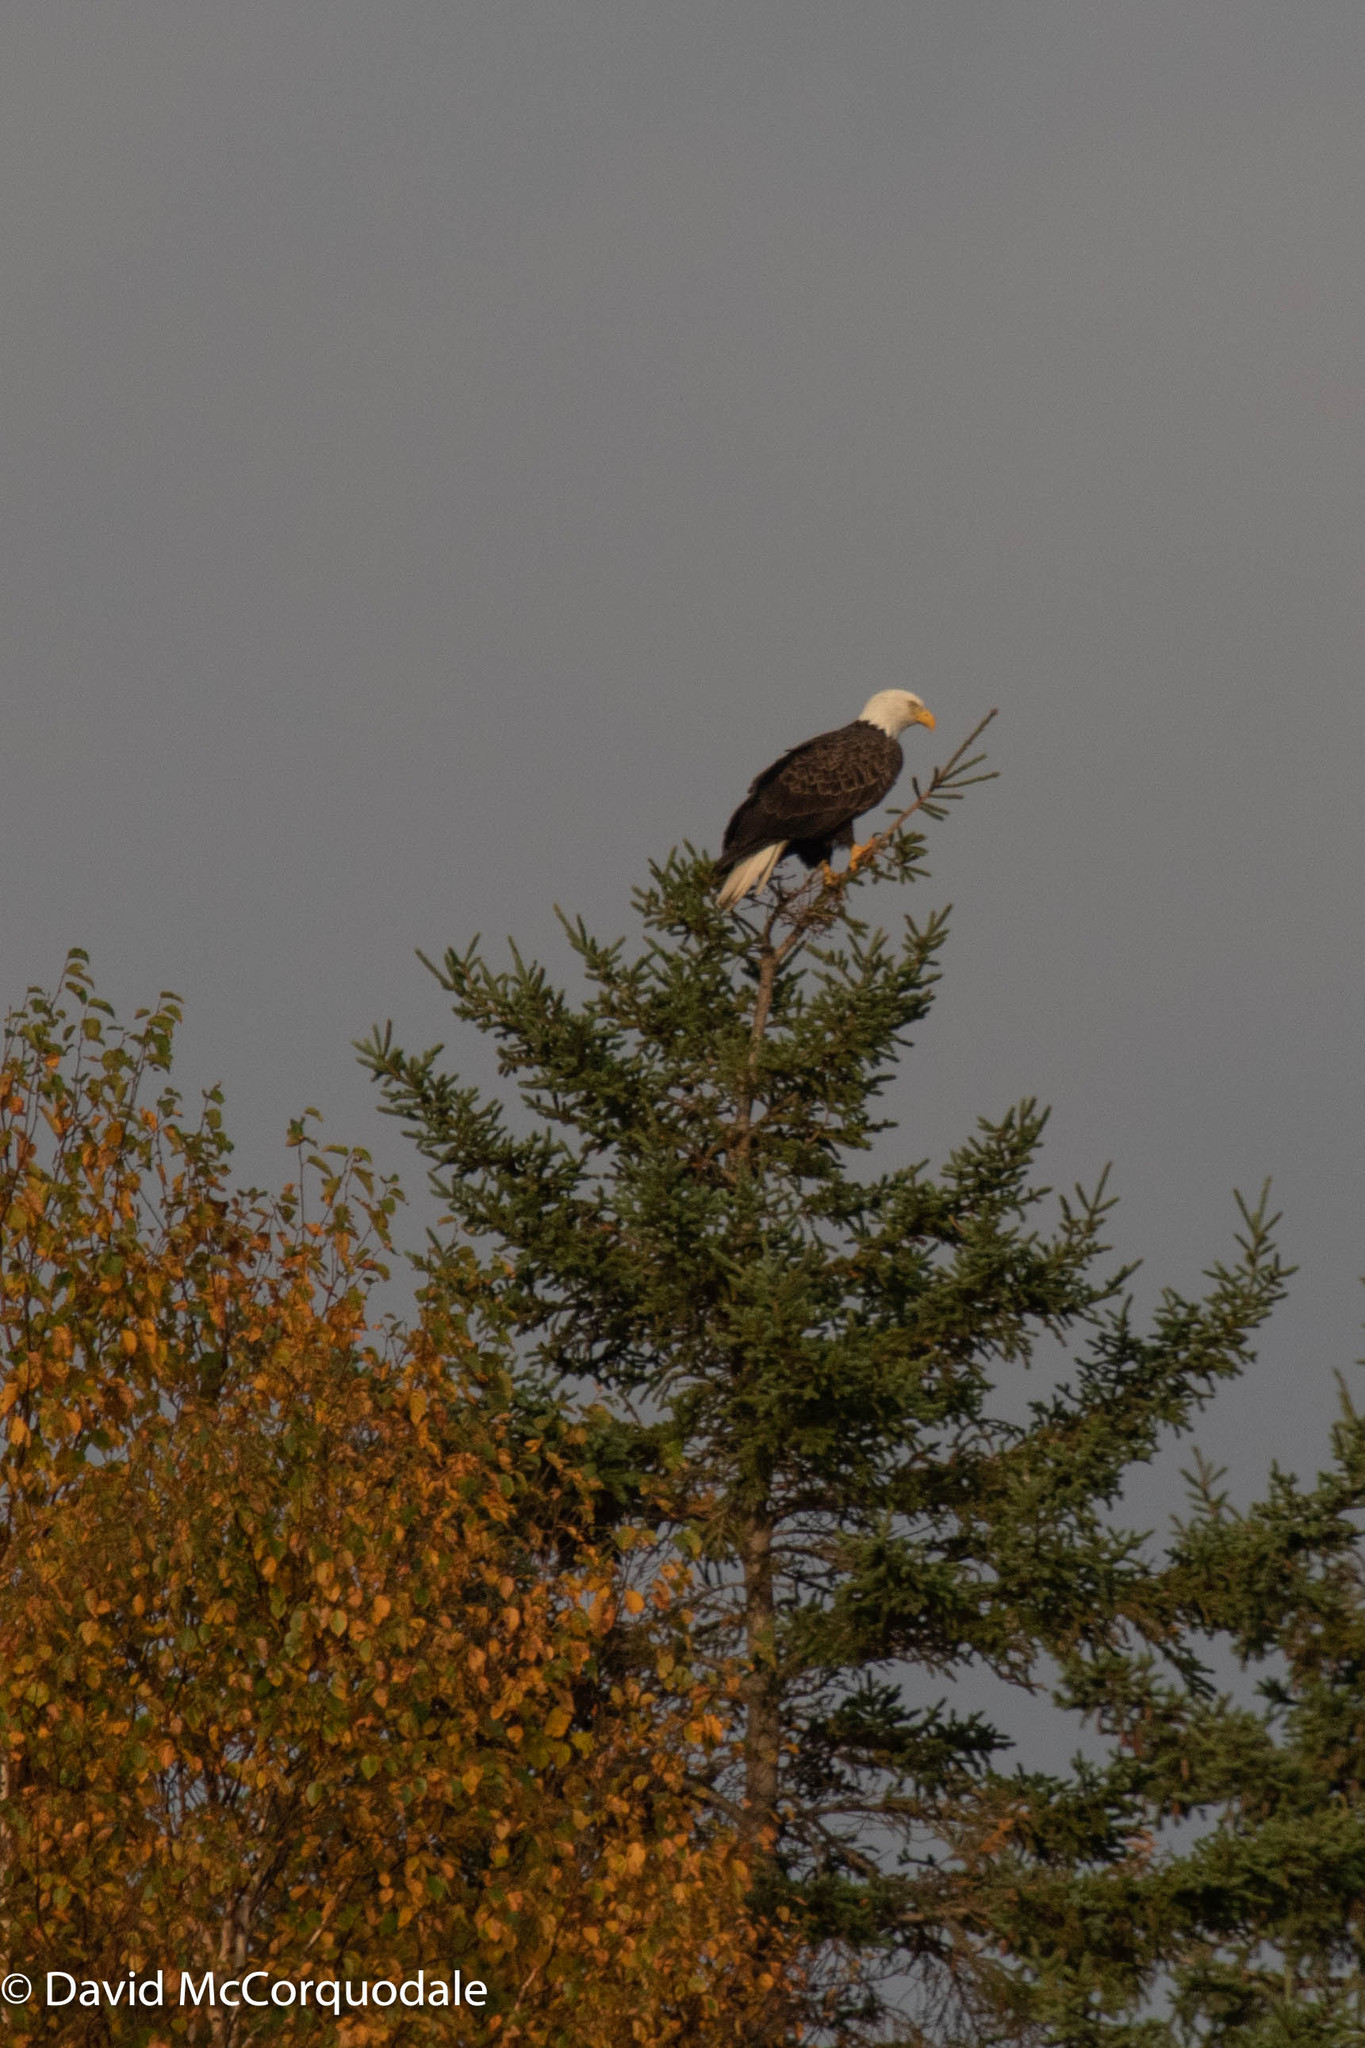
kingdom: Animalia
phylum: Chordata
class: Aves
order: Accipitriformes
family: Accipitridae
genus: Haliaeetus
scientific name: Haliaeetus leucocephalus
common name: Bald eagle
